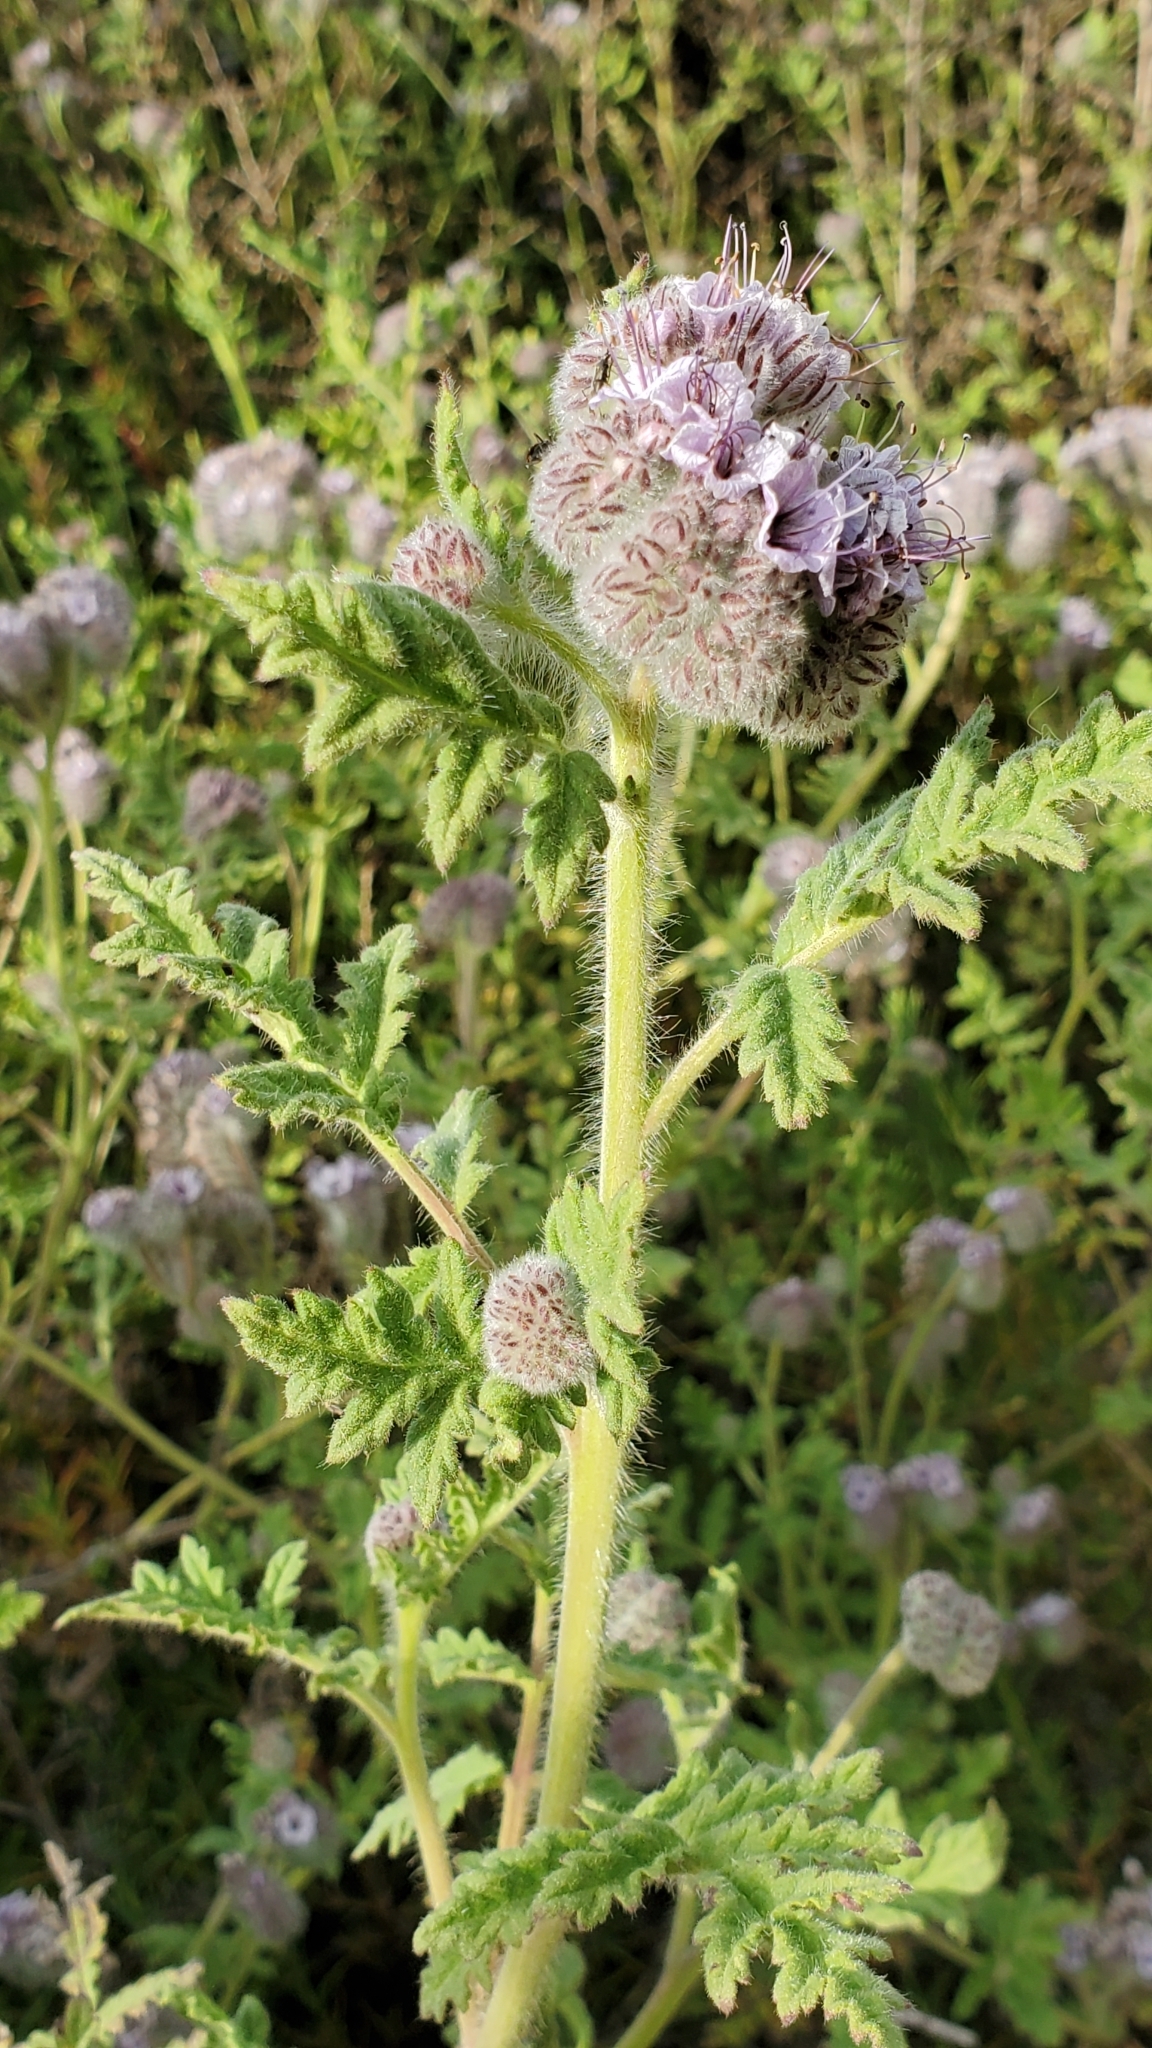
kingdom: Plantae
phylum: Tracheophyta
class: Magnoliopsida
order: Boraginales
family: Hydrophyllaceae
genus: Phacelia
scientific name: Phacelia hubbyi
